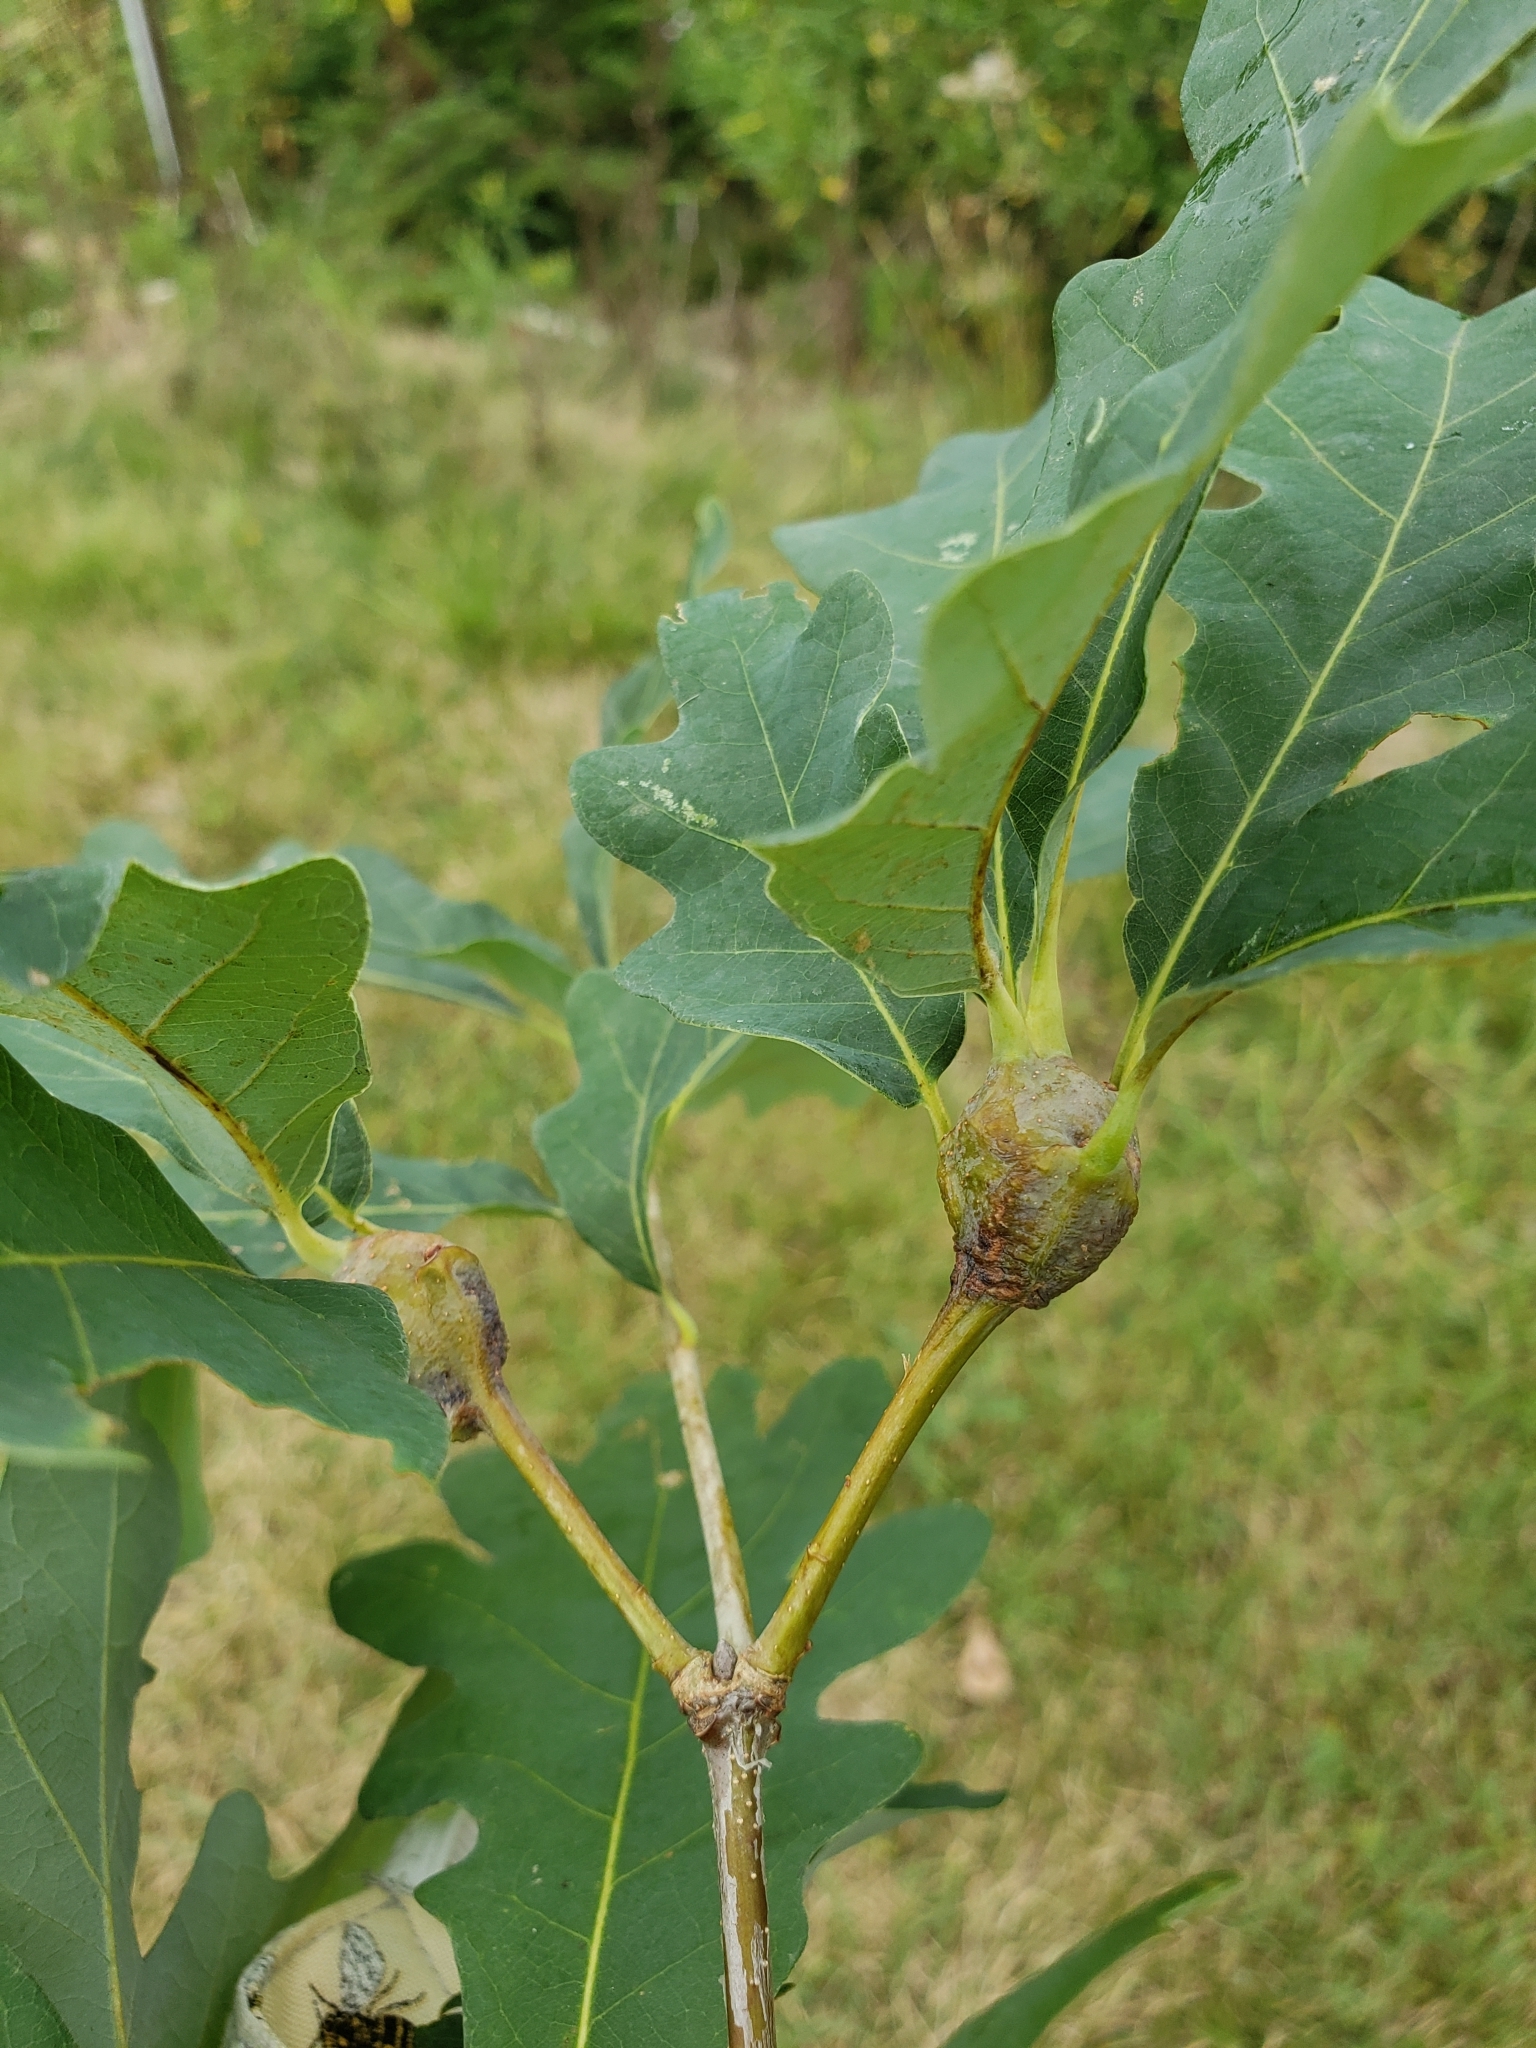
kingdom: Animalia
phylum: Arthropoda
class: Insecta
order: Hymenoptera
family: Cynipidae
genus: Callirhytis
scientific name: Callirhytis clavula
